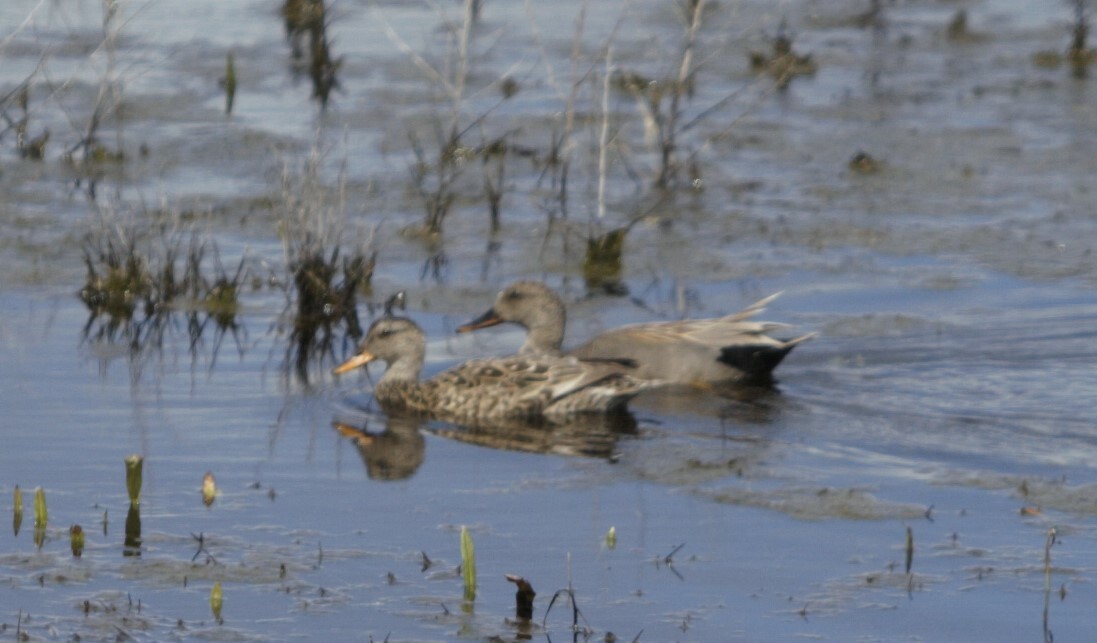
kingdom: Animalia
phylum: Chordata
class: Aves
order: Anseriformes
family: Anatidae
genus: Mareca
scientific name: Mareca strepera
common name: Gadwall
